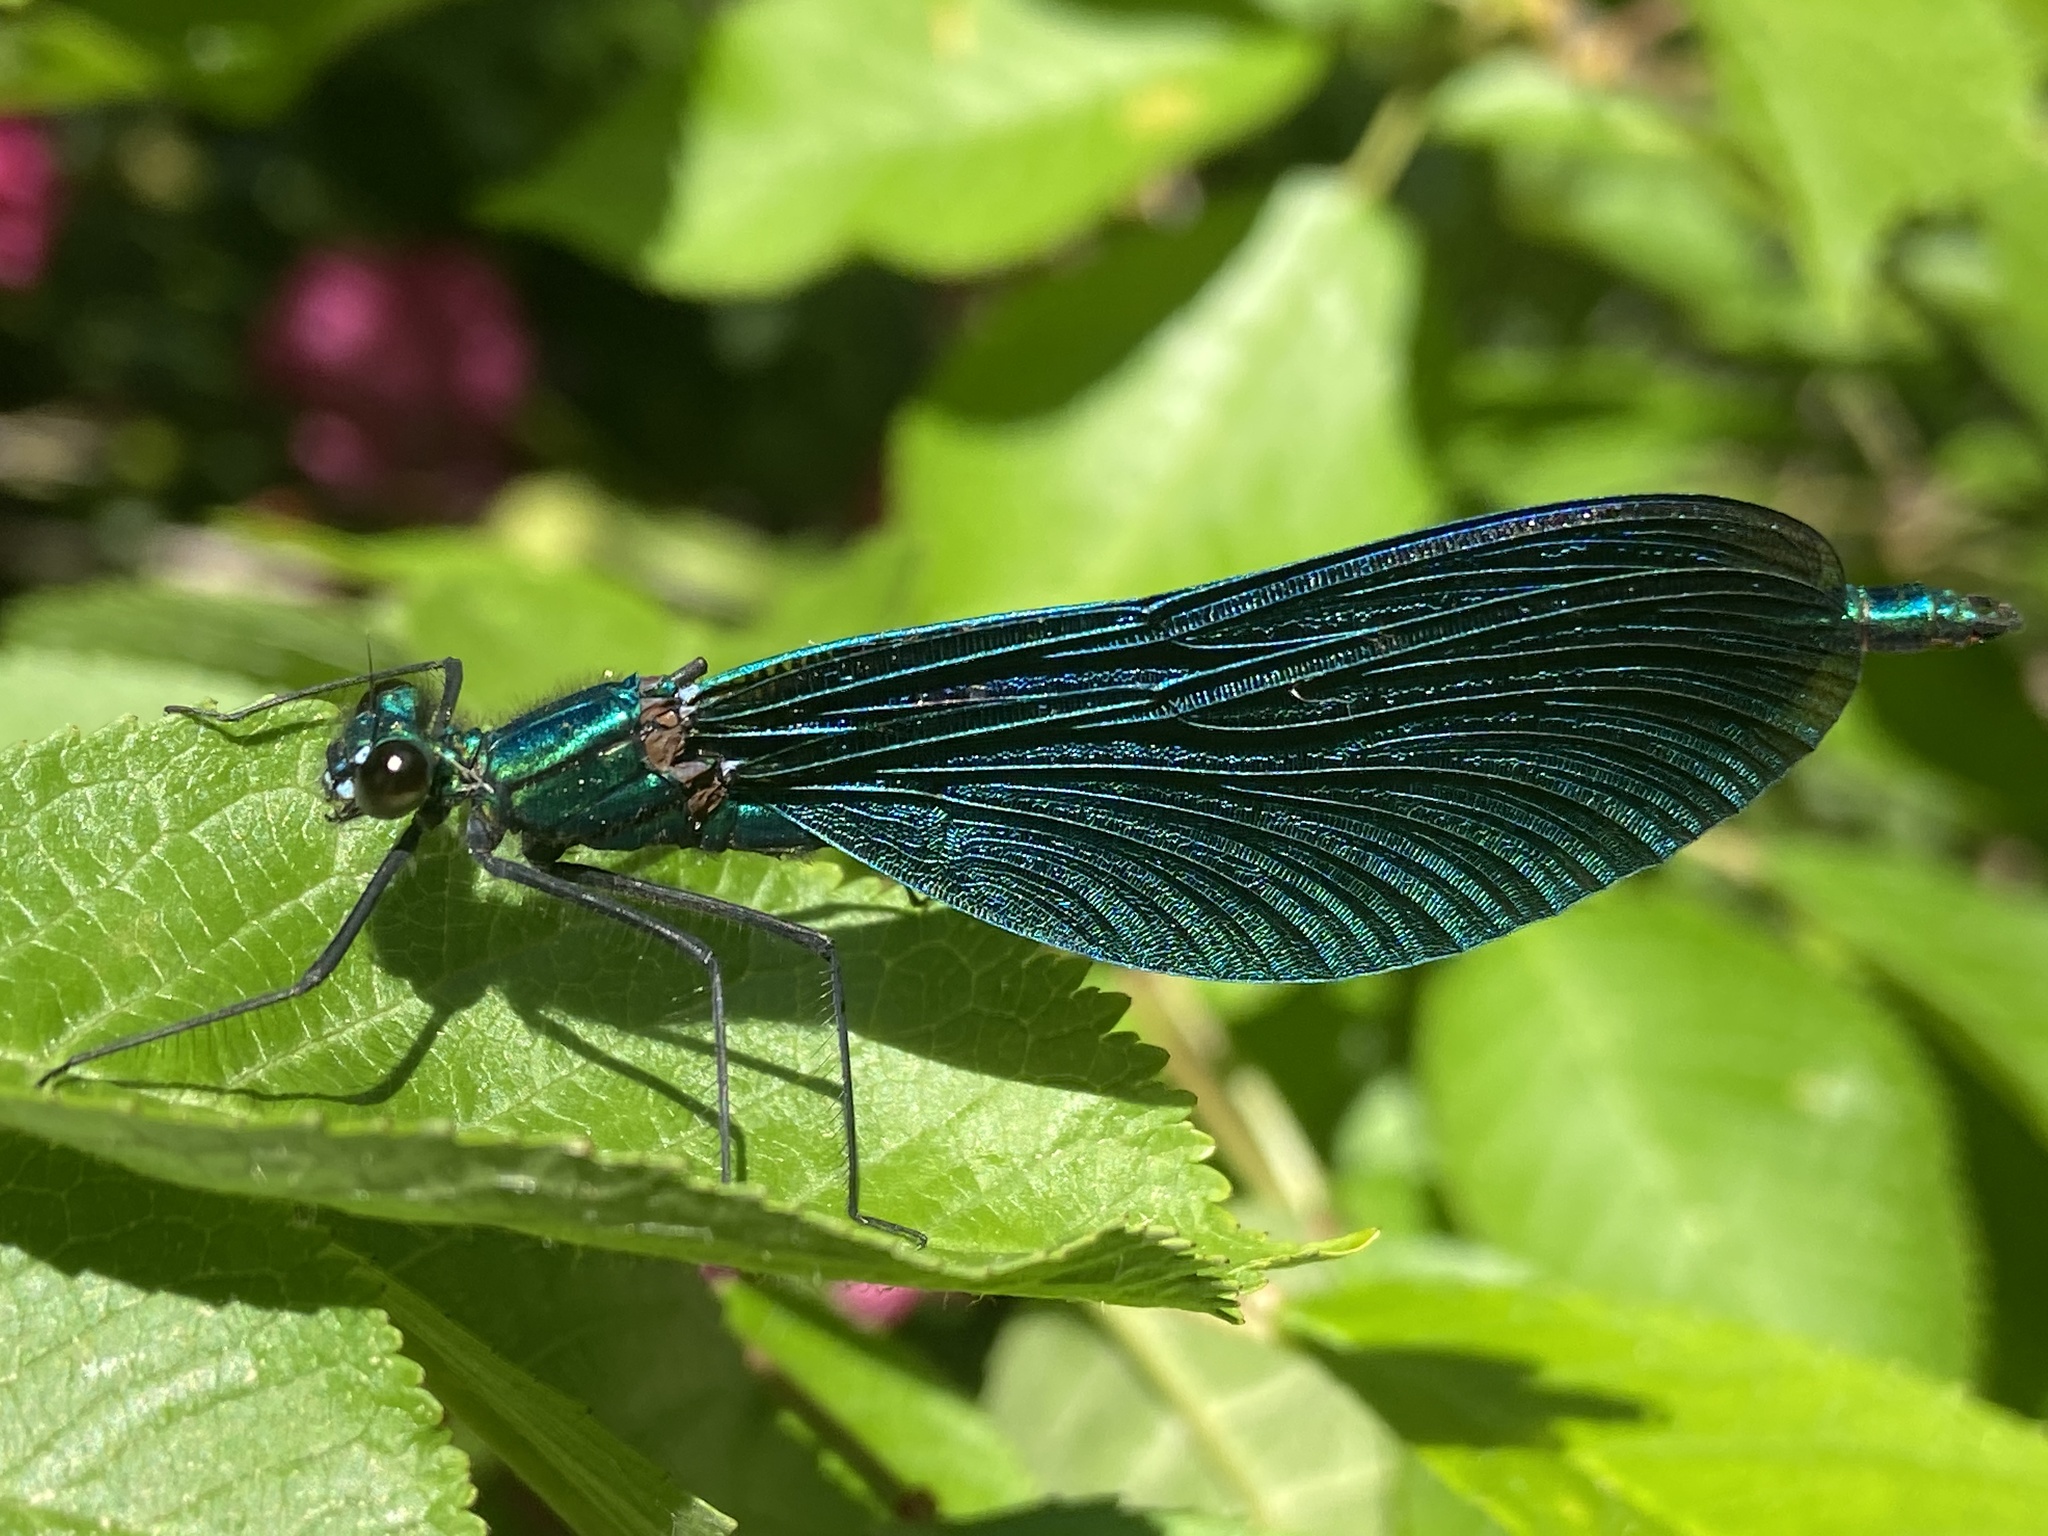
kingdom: Animalia
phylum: Arthropoda
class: Insecta
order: Odonata
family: Calopterygidae
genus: Calopteryx
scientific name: Calopteryx virgo
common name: Beautiful demoiselle
